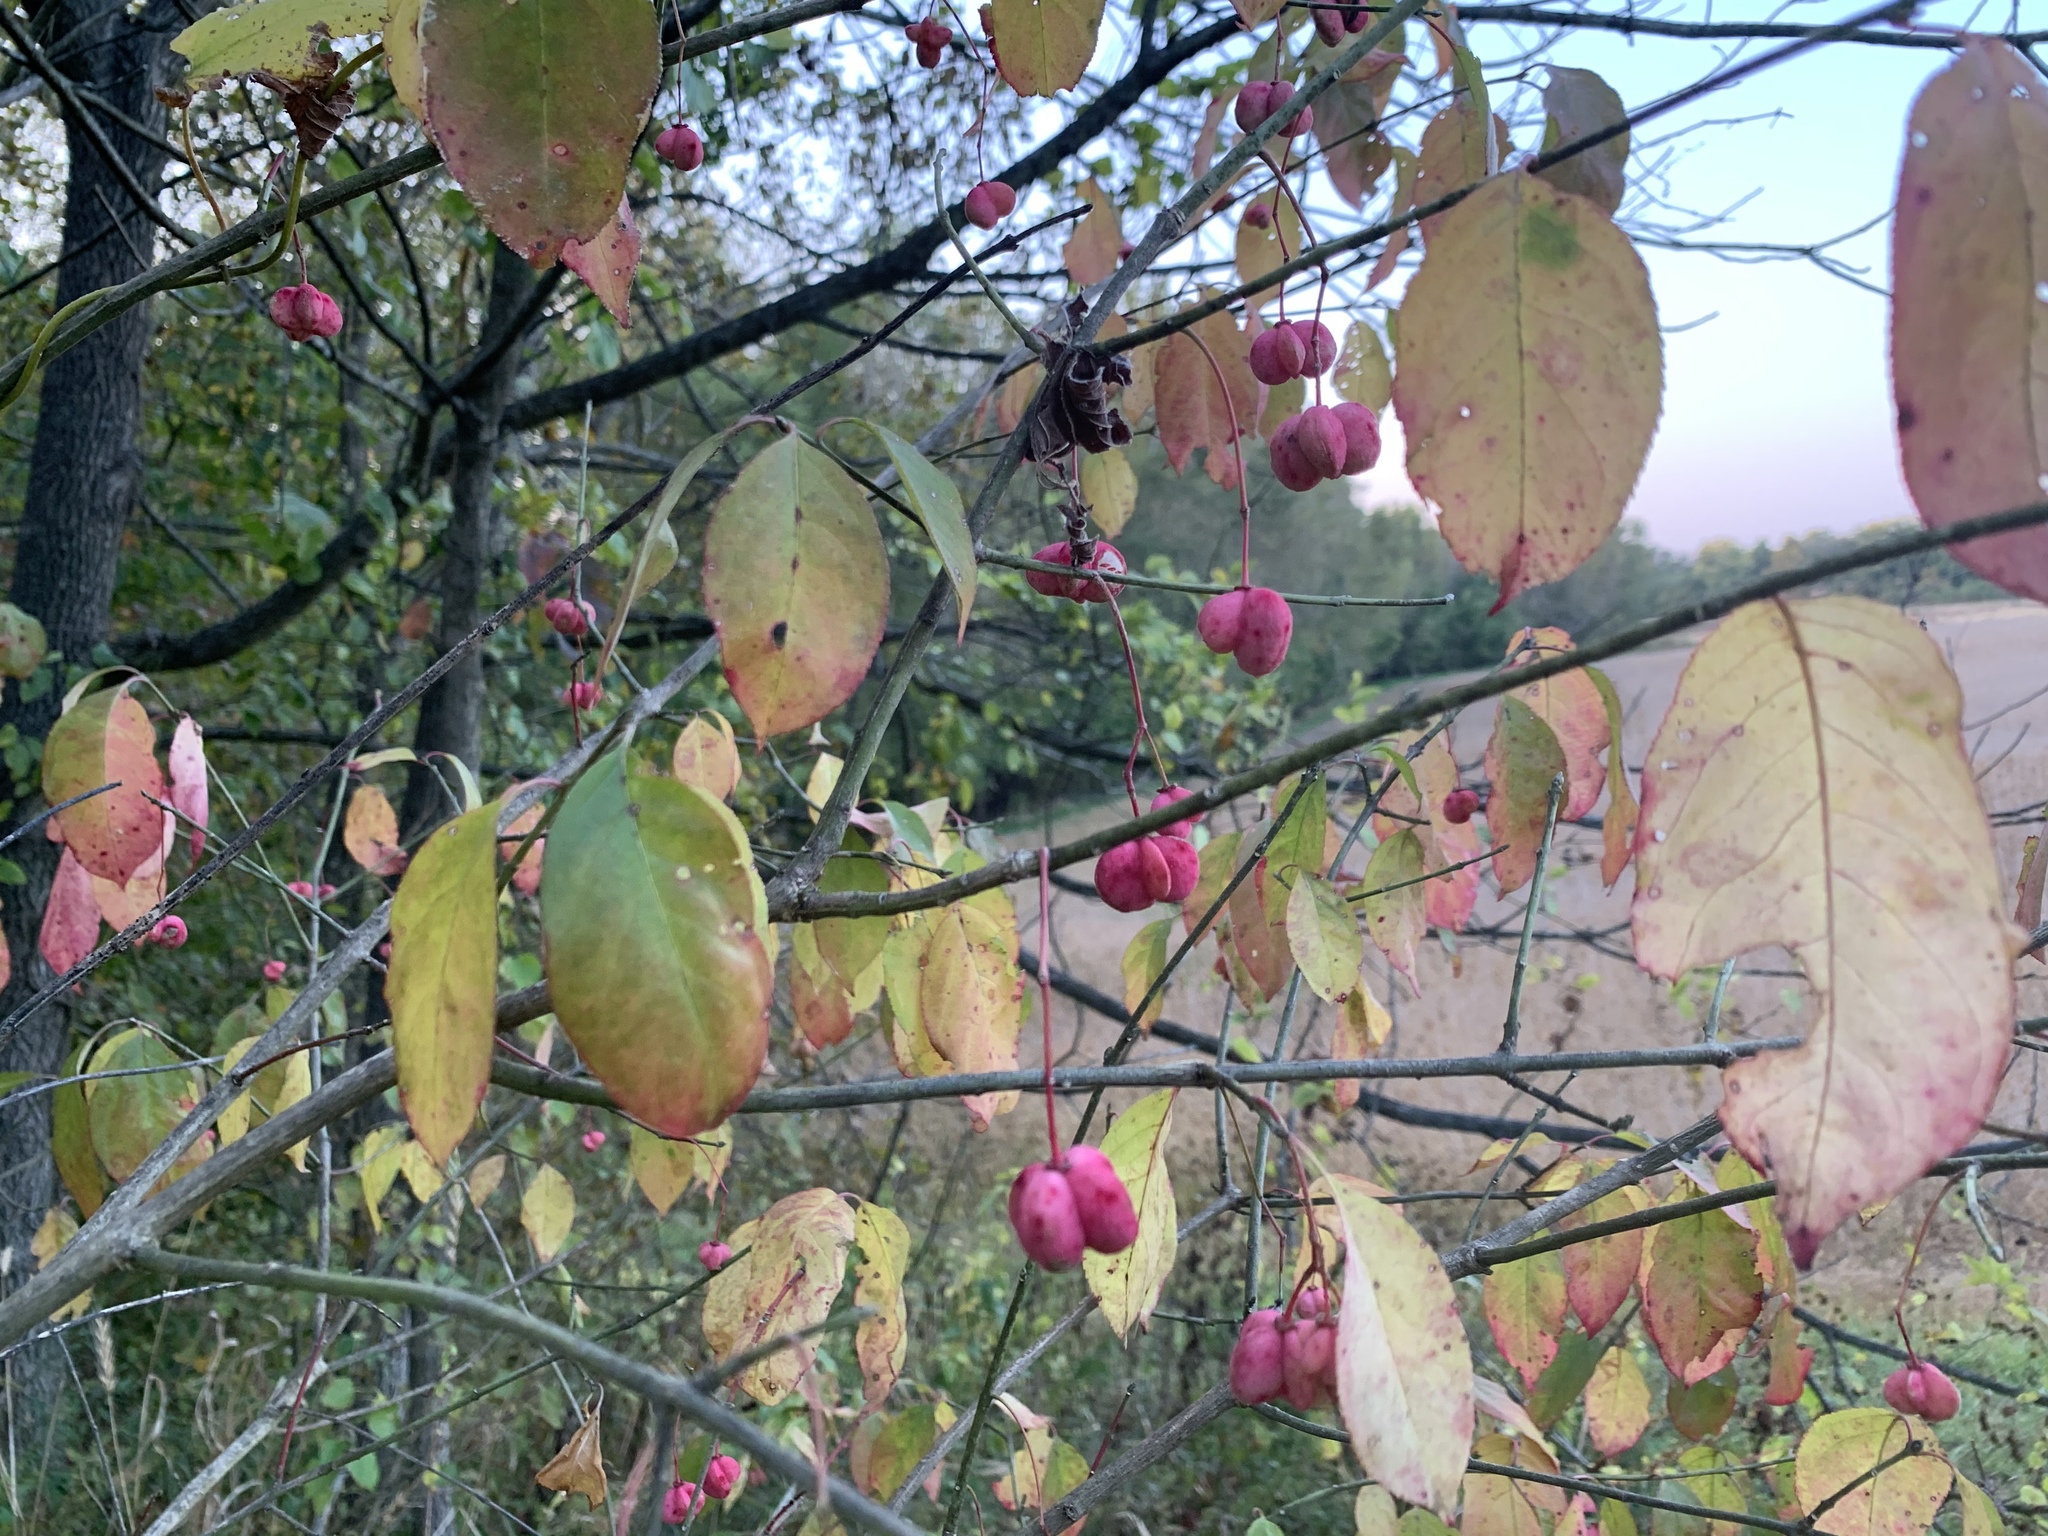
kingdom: Plantae
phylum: Tracheophyta
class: Magnoliopsida
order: Celastrales
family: Celastraceae
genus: Euonymus
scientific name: Euonymus atropurpureus
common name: Eastern wahoo
